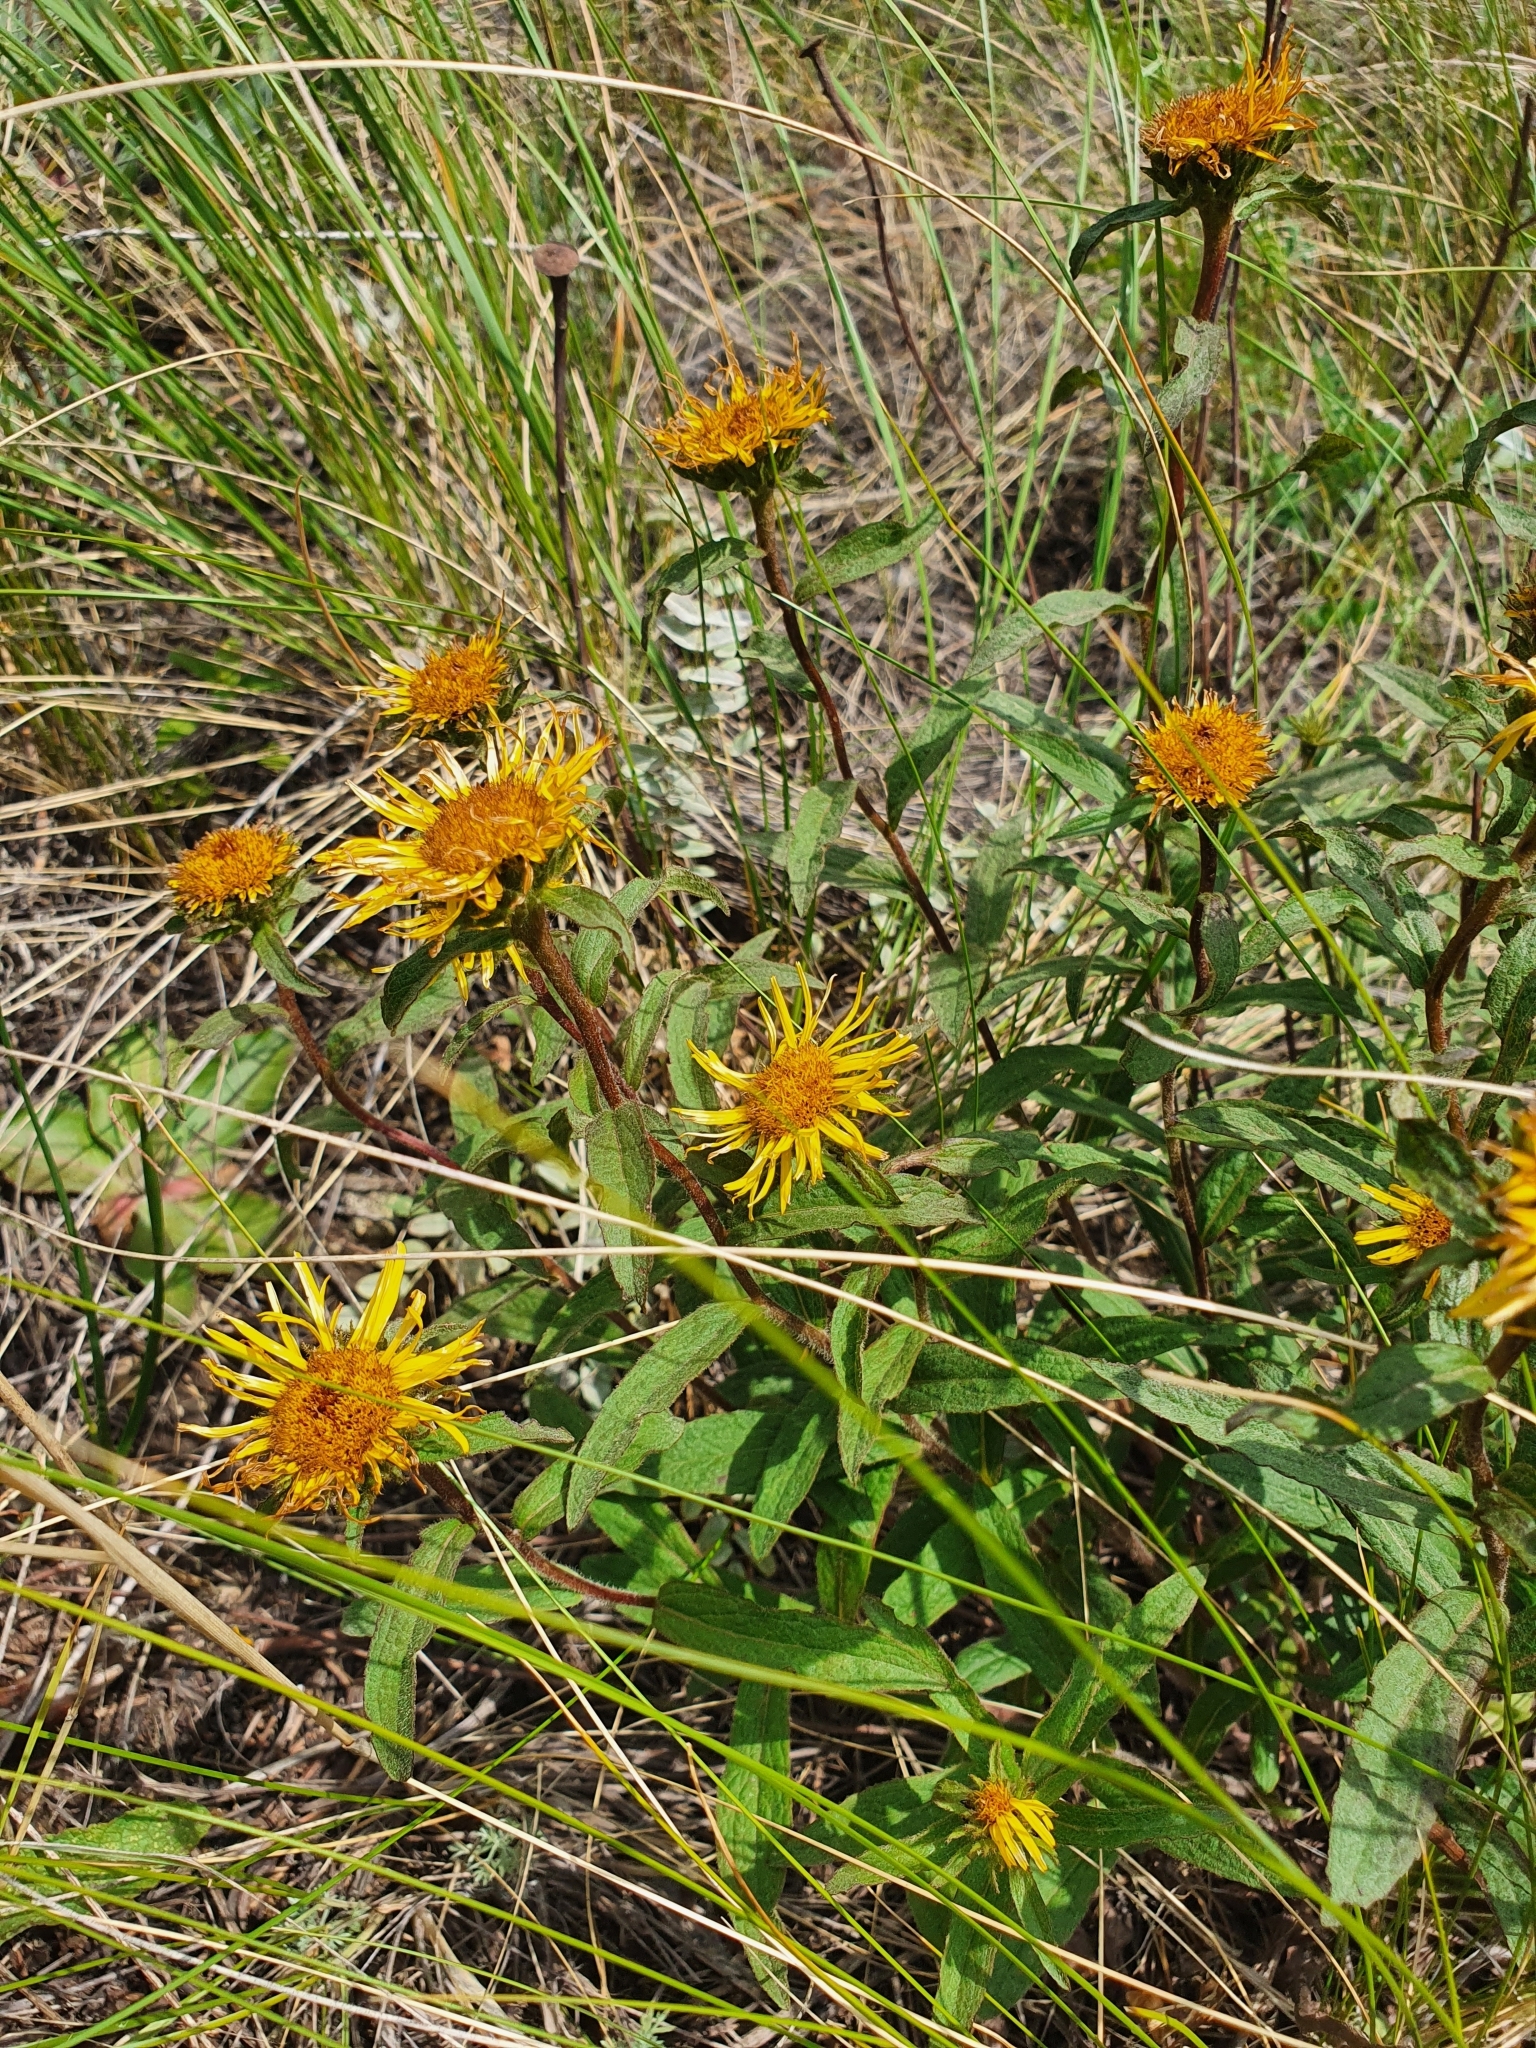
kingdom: Plantae
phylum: Tracheophyta
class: Magnoliopsida
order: Asterales
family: Asteraceae
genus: Pentanema
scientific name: Pentanema hirtum
